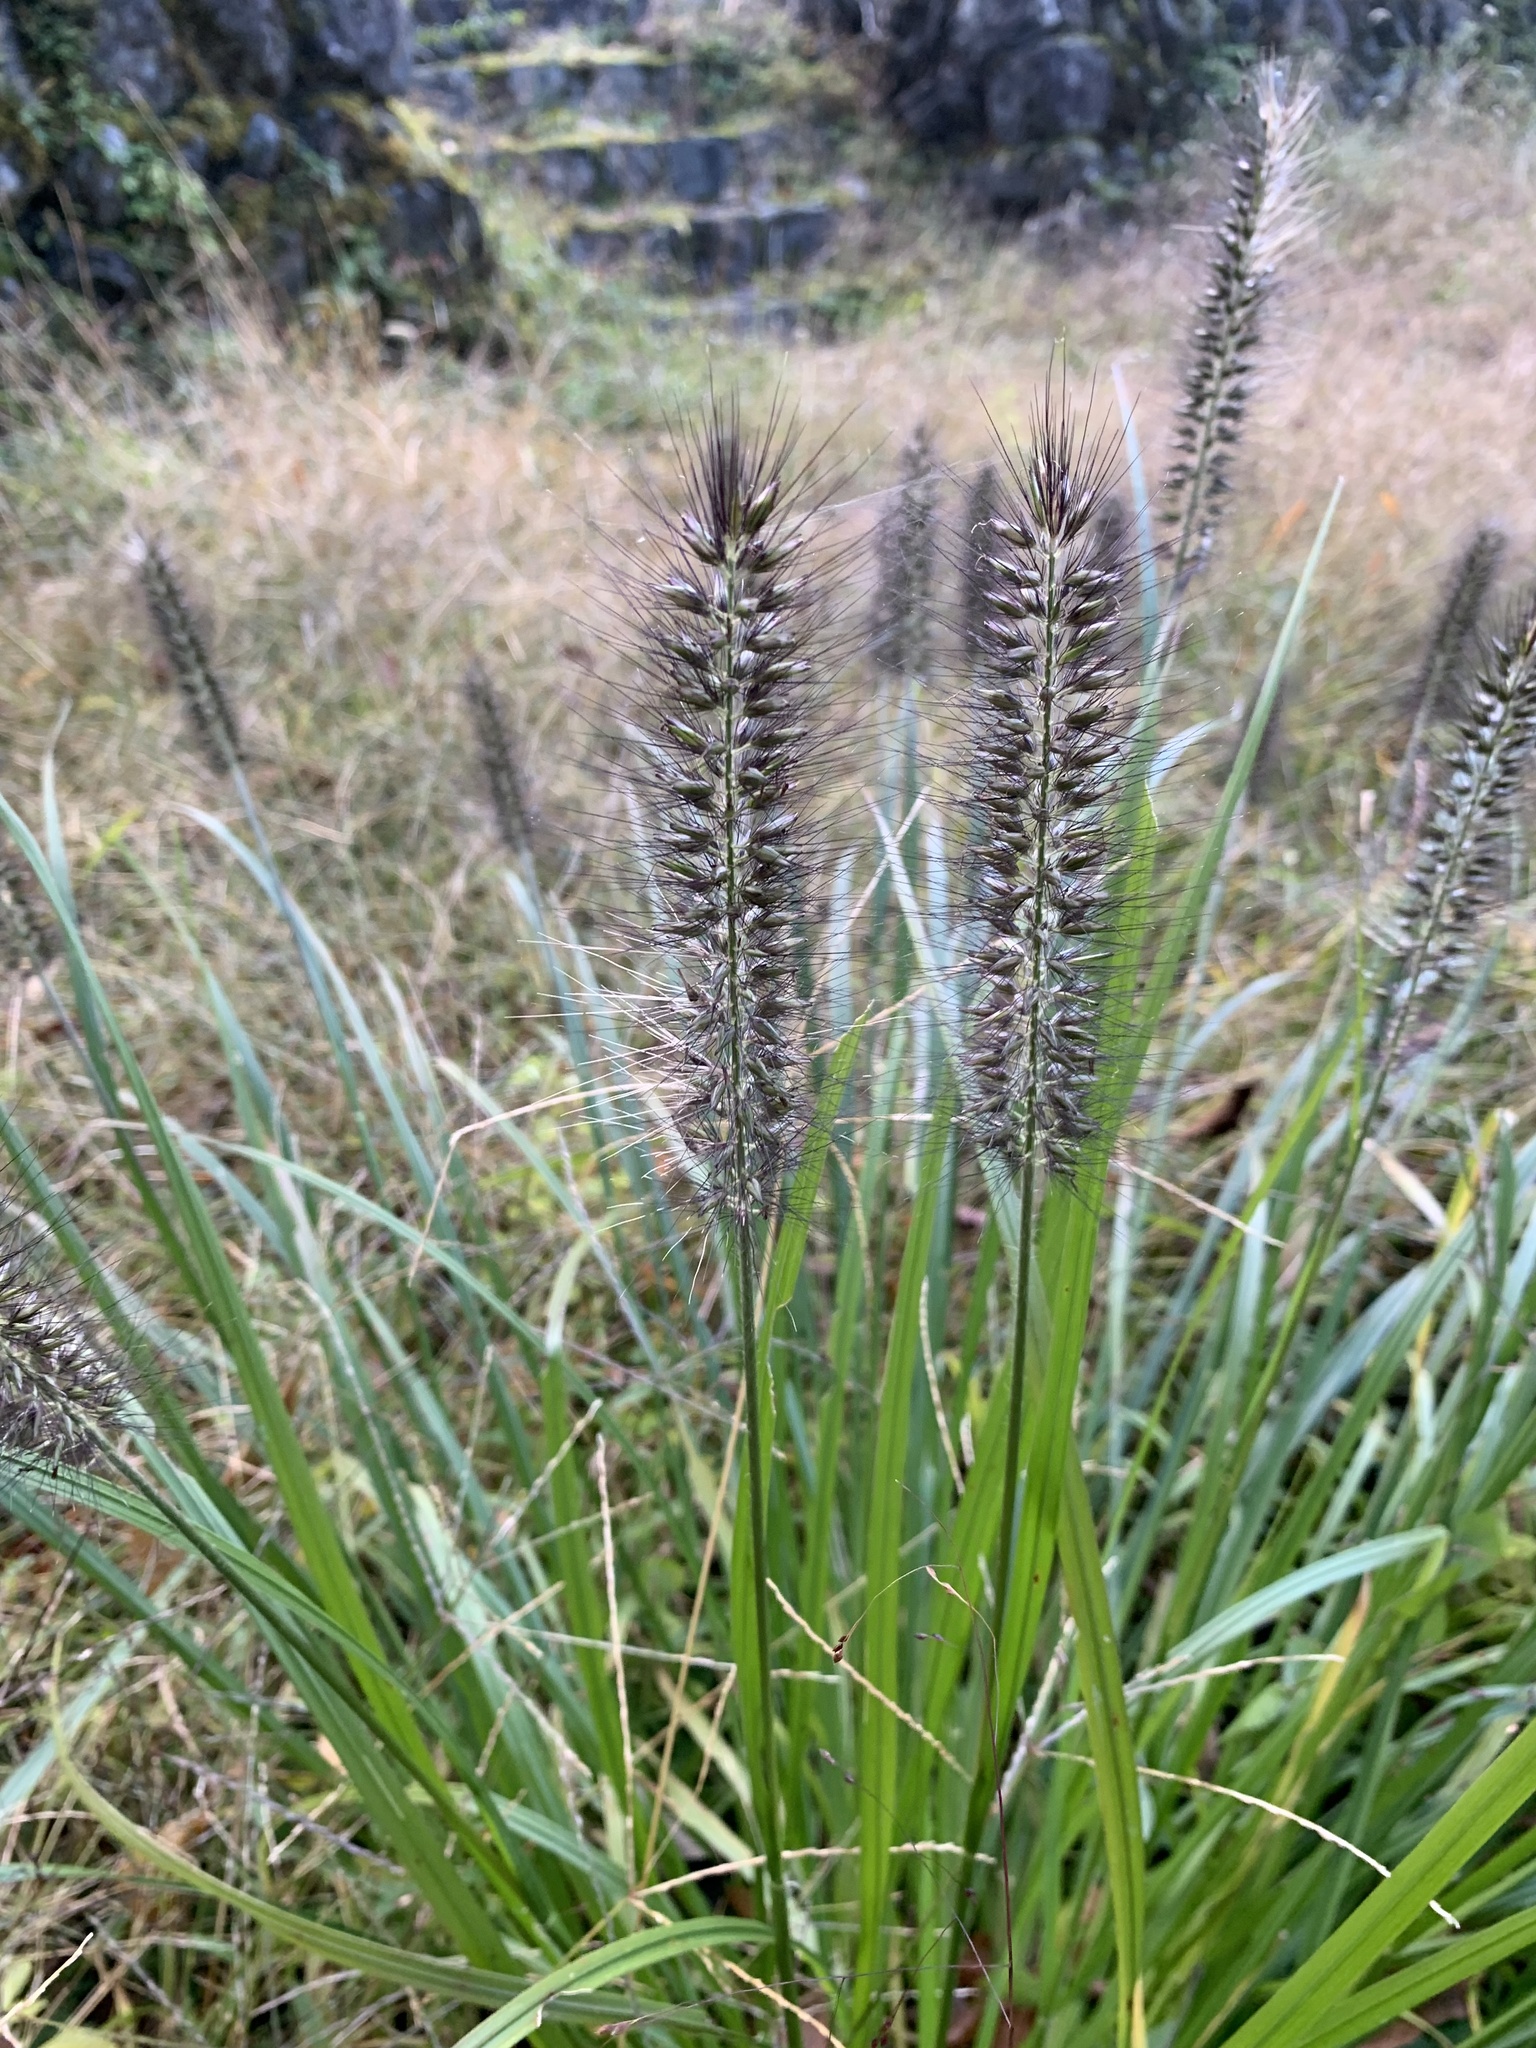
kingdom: Plantae
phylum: Tracheophyta
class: Liliopsida
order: Poales
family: Poaceae
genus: Cenchrus
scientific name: Cenchrus alopecuroides
